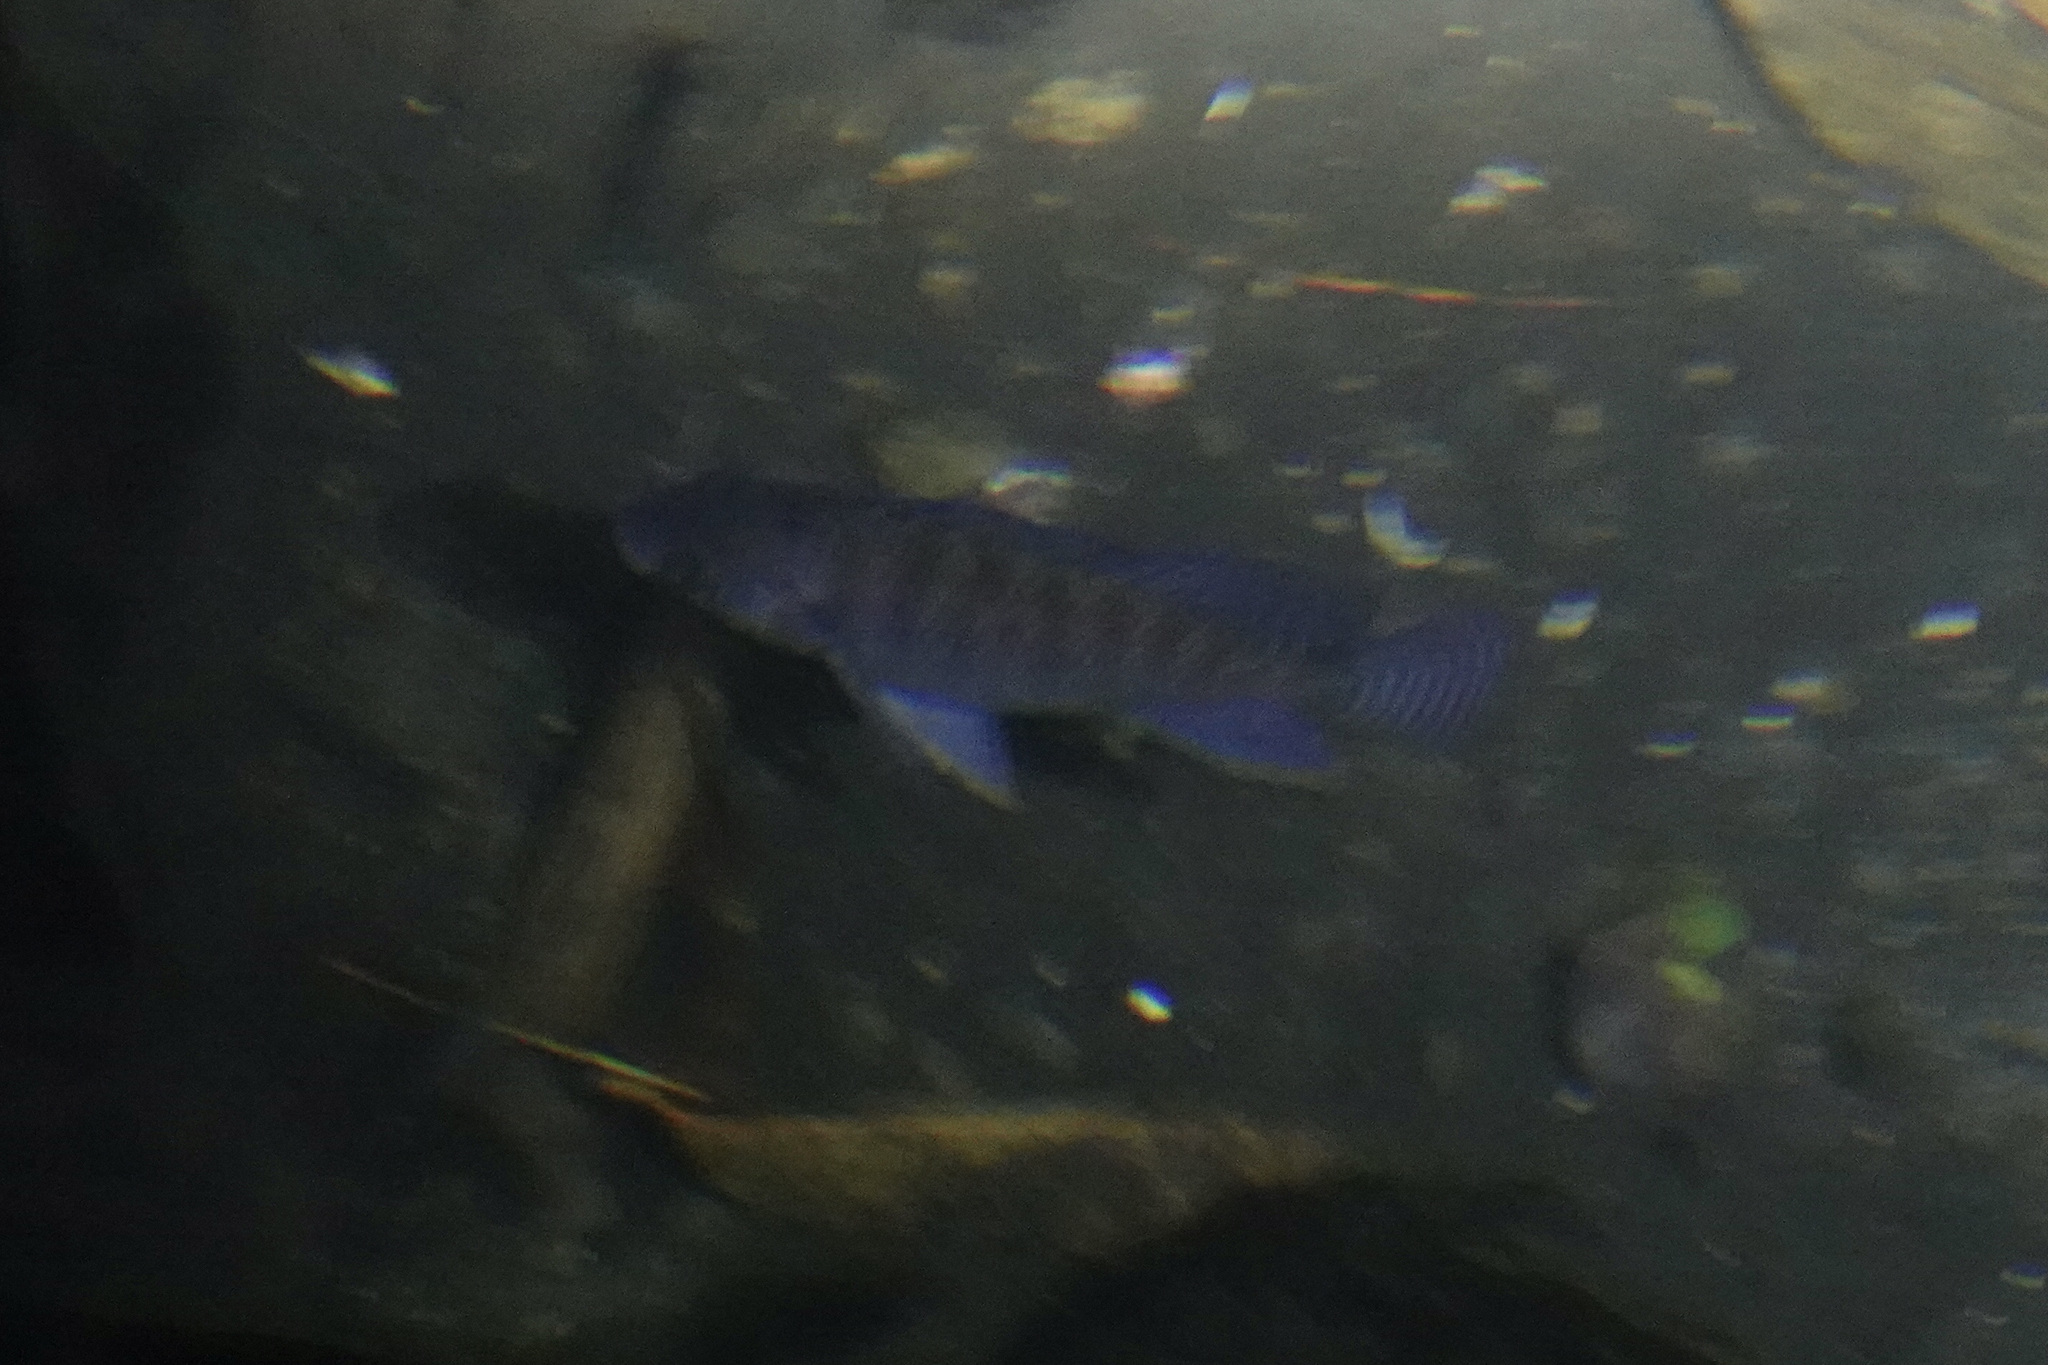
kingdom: Animalia
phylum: Chordata
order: Perciformes
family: Cichlidae
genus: Oreochromis
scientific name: Oreochromis niloticus
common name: Nile tilapia
